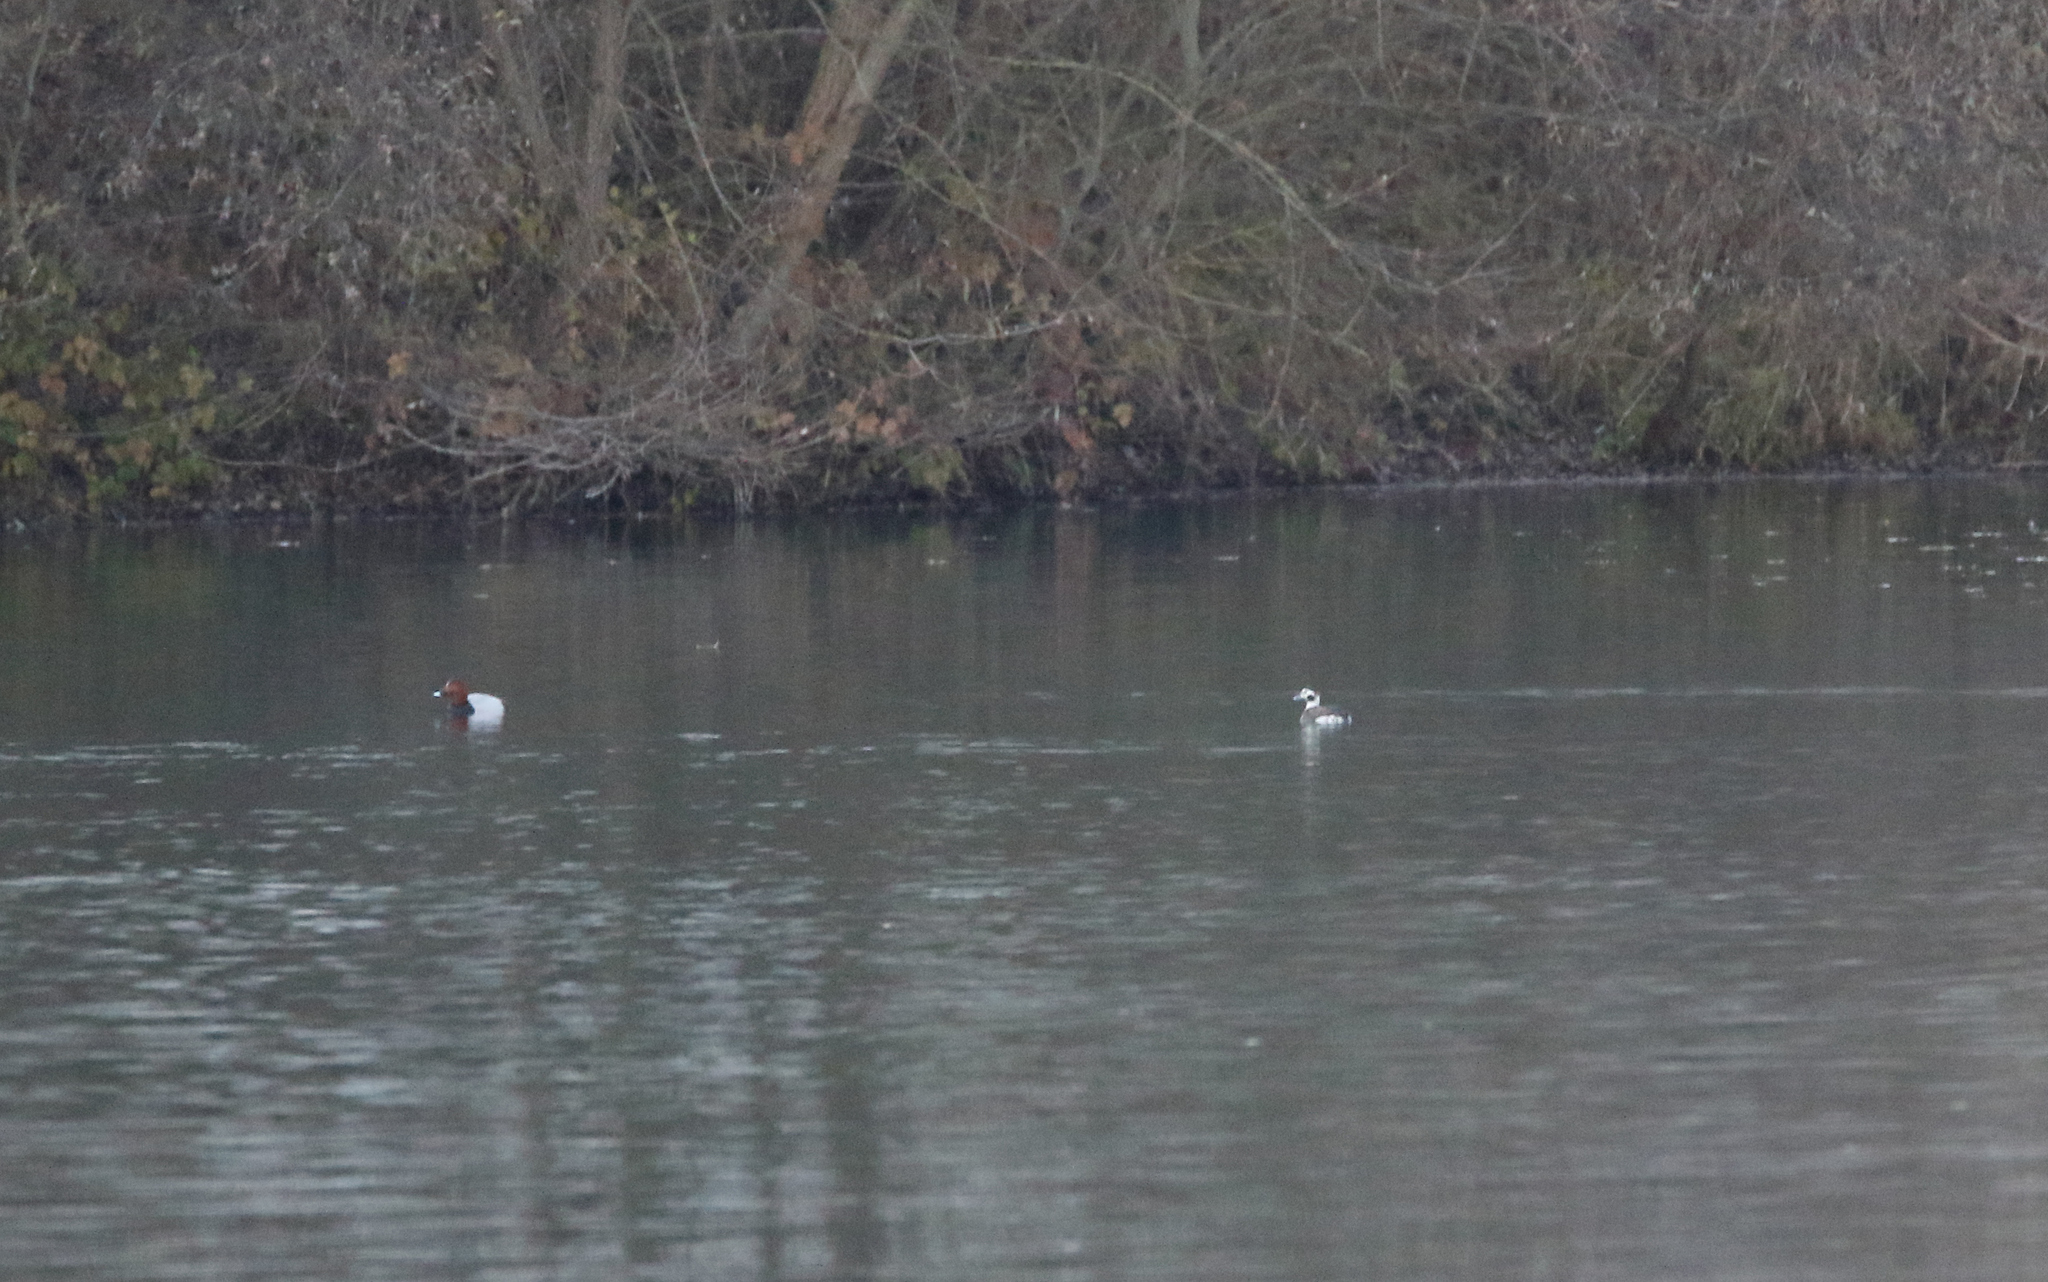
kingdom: Animalia
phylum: Chordata
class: Aves
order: Anseriformes
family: Anatidae
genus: Clangula
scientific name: Clangula hyemalis
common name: Long-tailed duck
